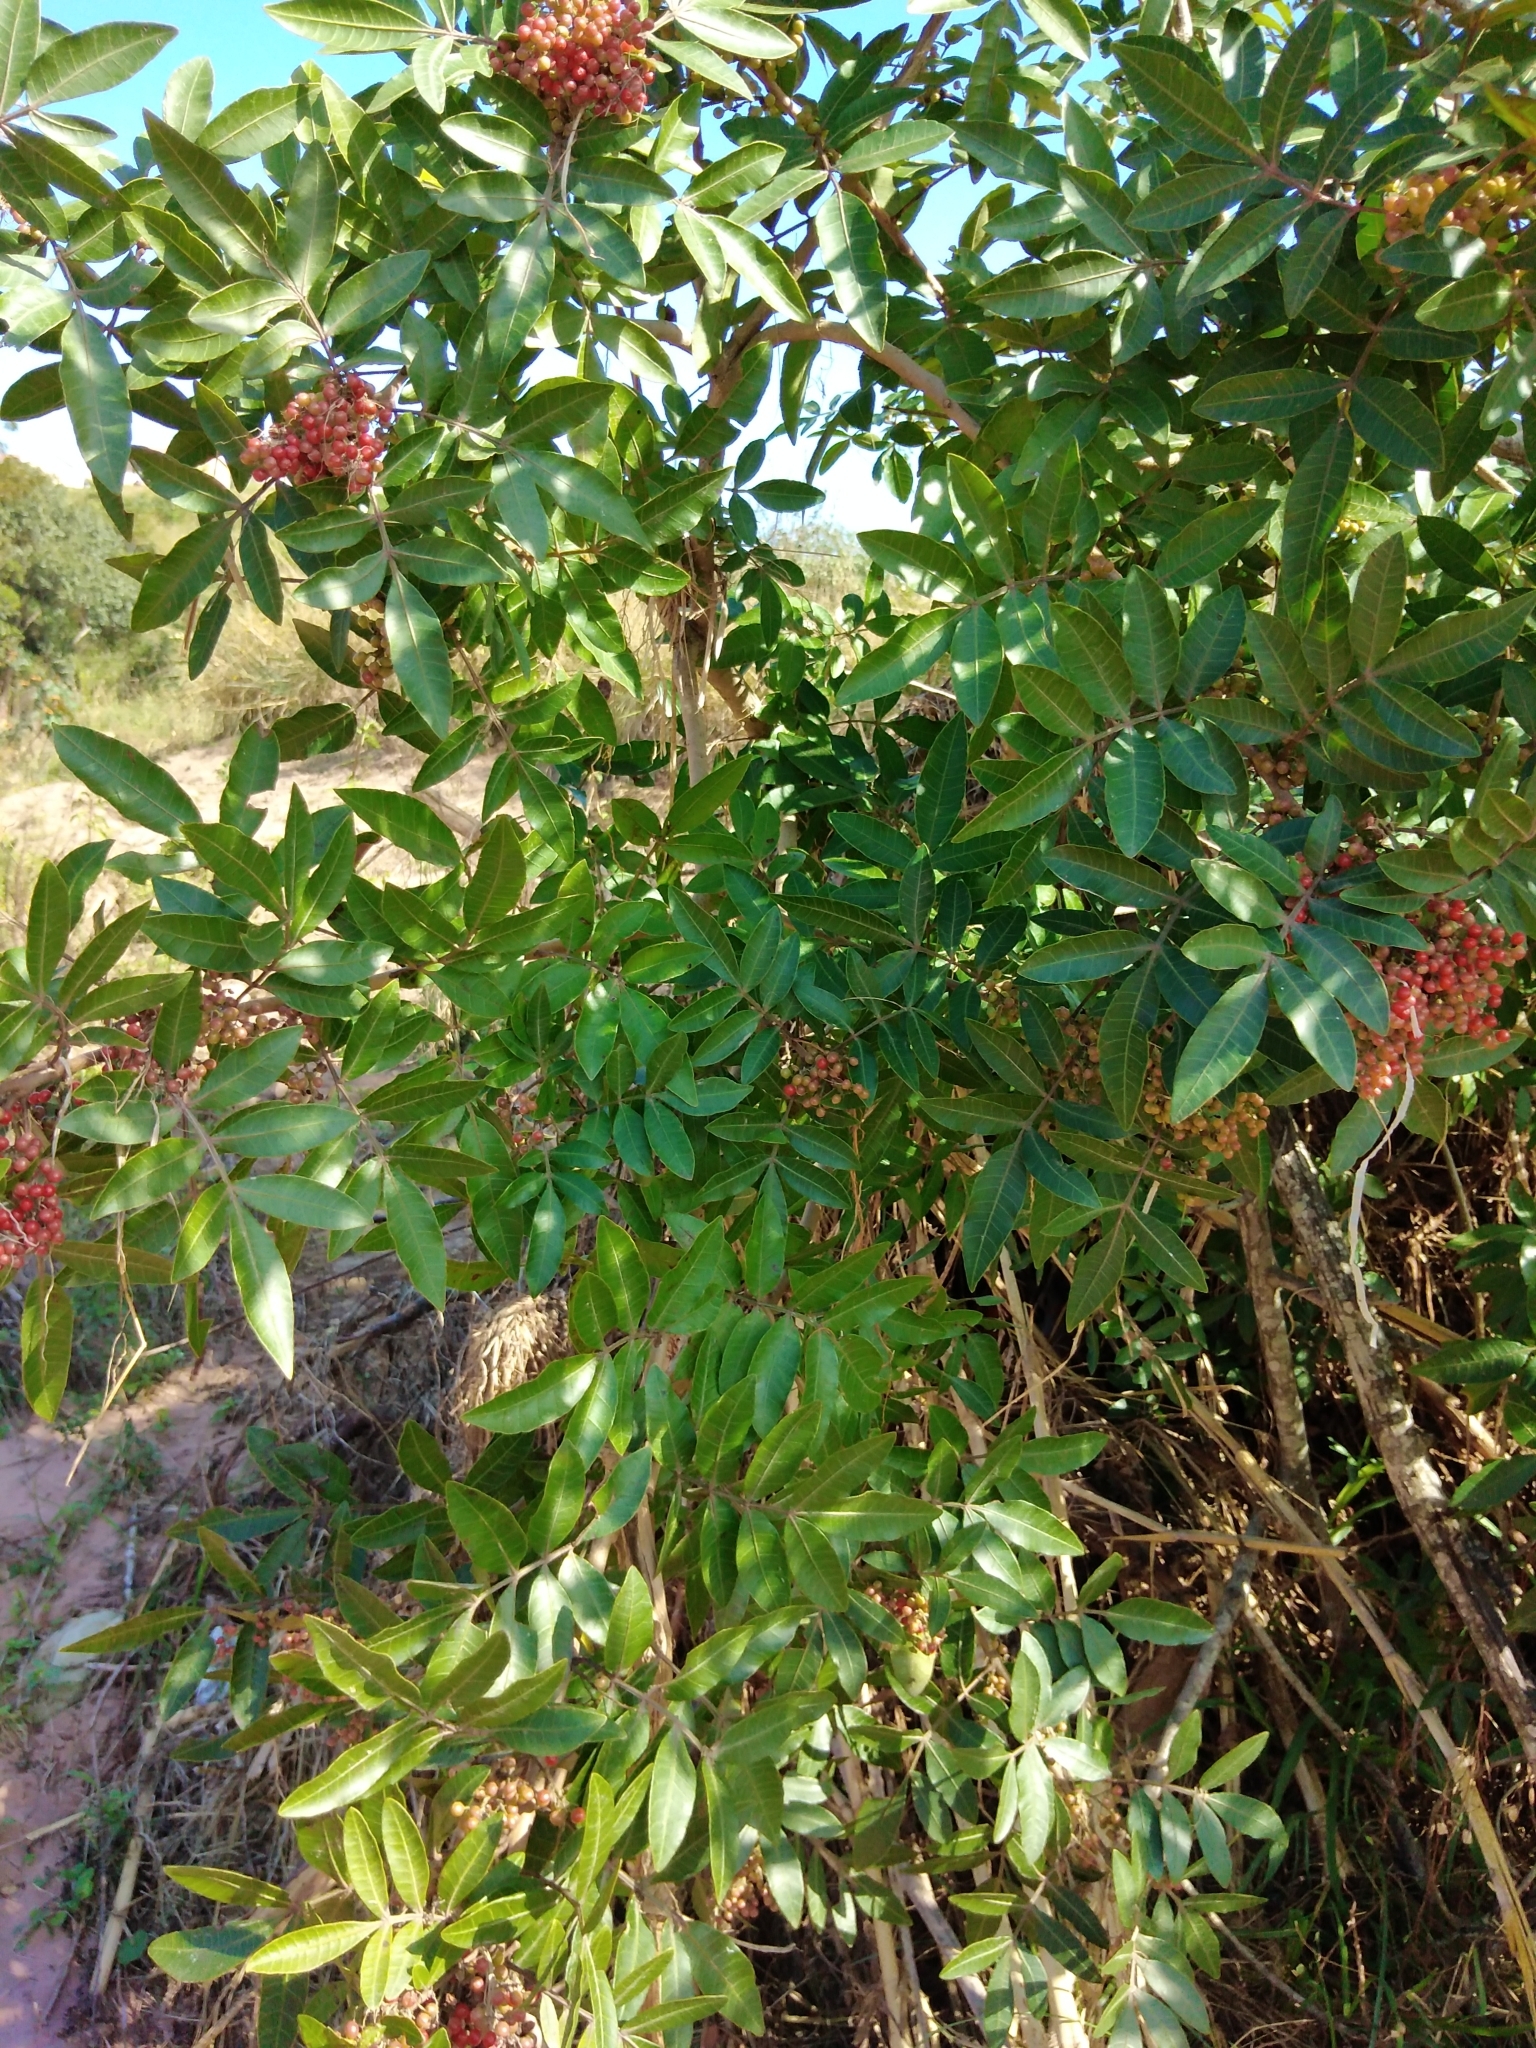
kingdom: Plantae
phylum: Tracheophyta
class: Magnoliopsida
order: Sapindales
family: Anacardiaceae
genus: Schinus
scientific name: Schinus terebinthifolia
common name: Brazilian peppertree
